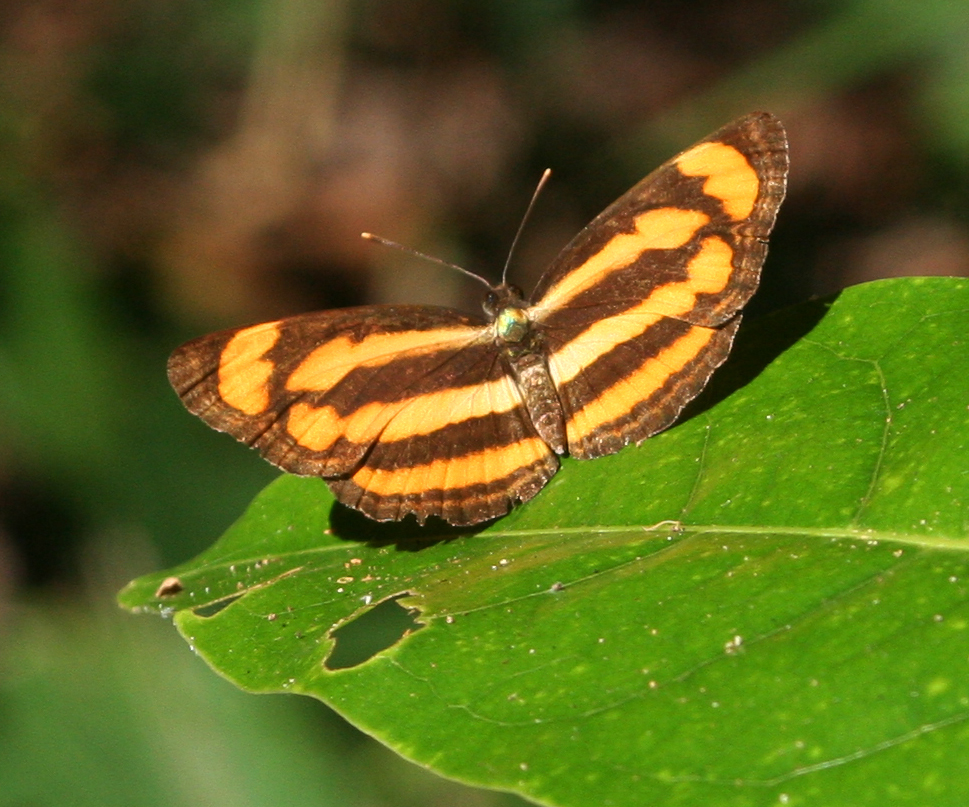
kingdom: Animalia
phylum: Arthropoda
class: Insecta
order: Lepidoptera
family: Nymphalidae
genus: Pantoporia
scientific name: Pantoporia paraka
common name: Perak lascar
